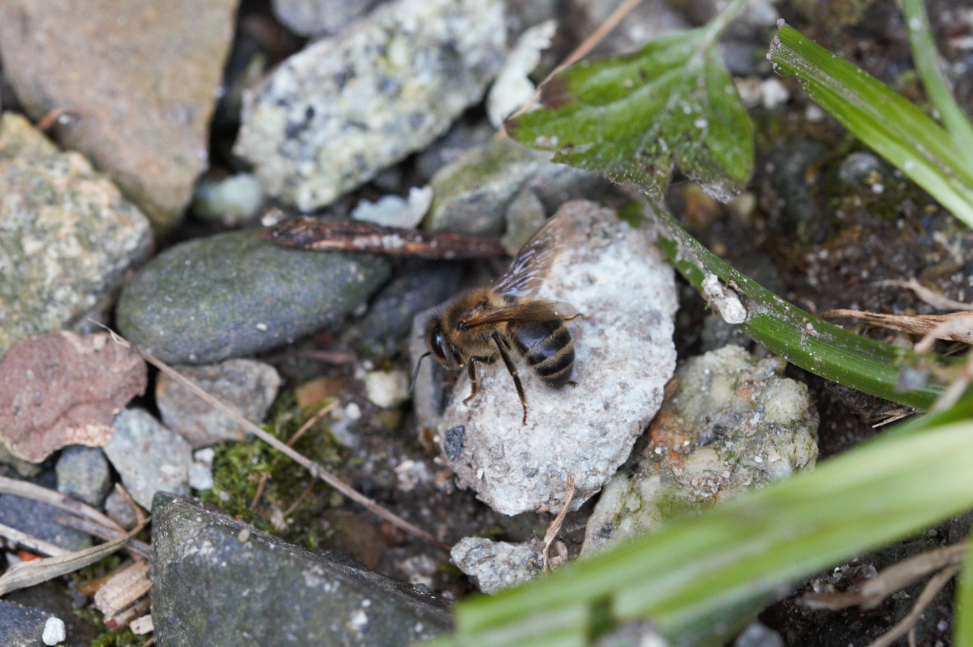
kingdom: Animalia
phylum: Arthropoda
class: Insecta
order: Hymenoptera
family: Apidae
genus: Apis
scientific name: Apis mellifera
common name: Honey bee
